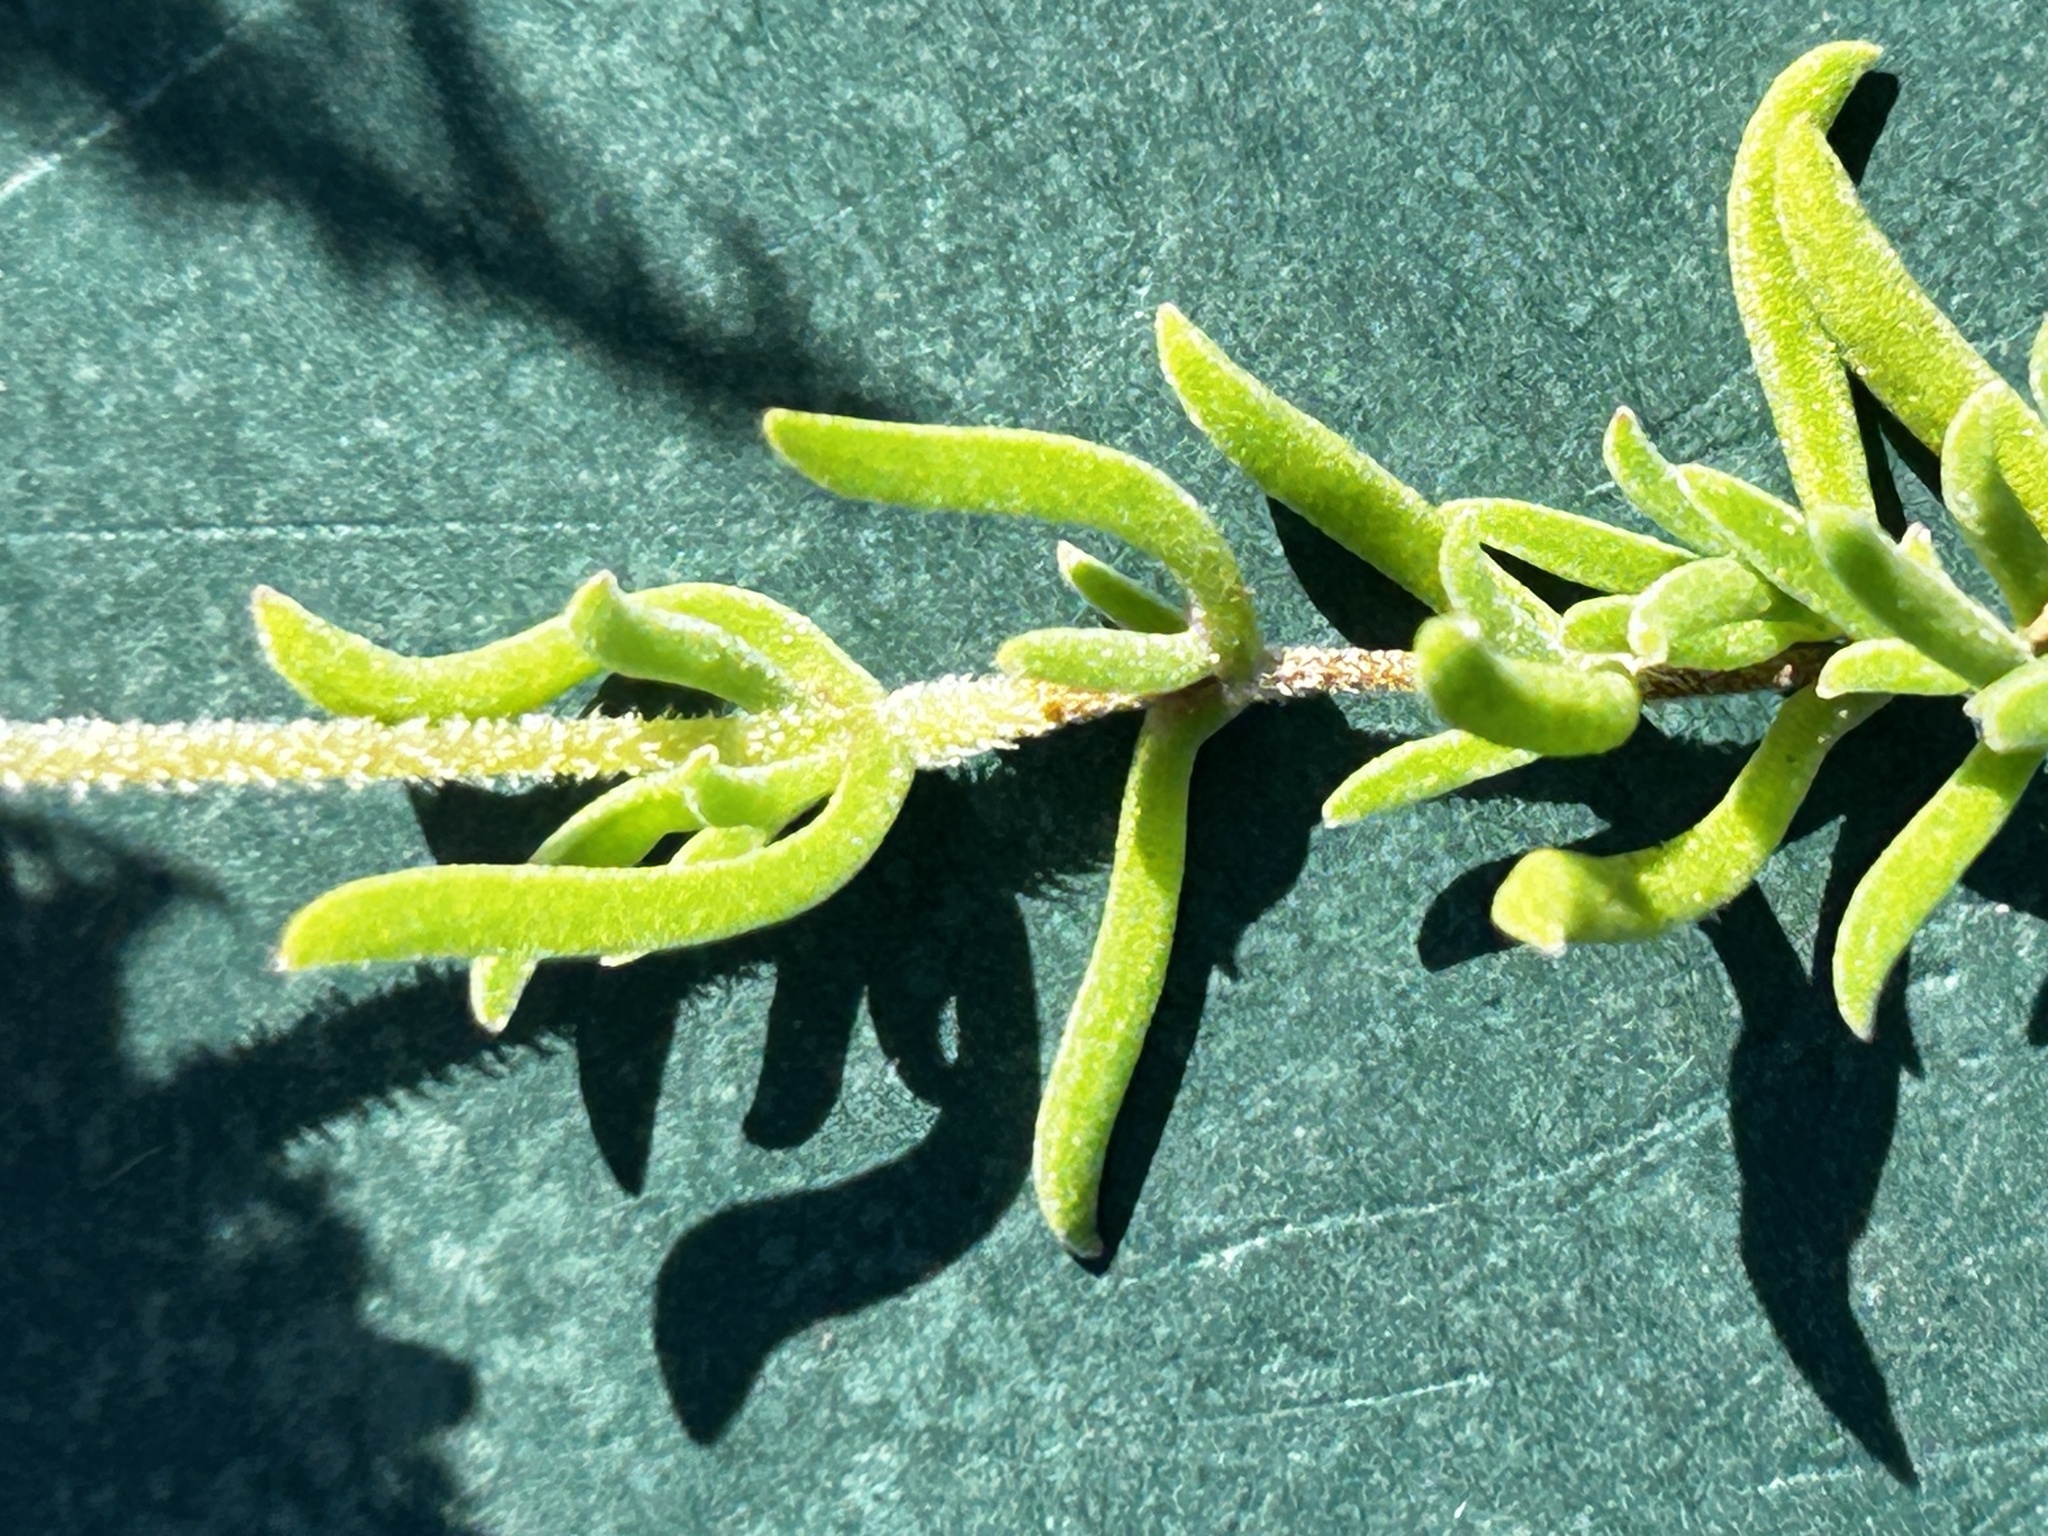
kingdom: Plantae
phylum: Tracheophyta
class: Magnoliopsida
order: Caryophyllales
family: Aizoaceae
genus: Drosanthemum
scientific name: Drosanthemum calcareum
